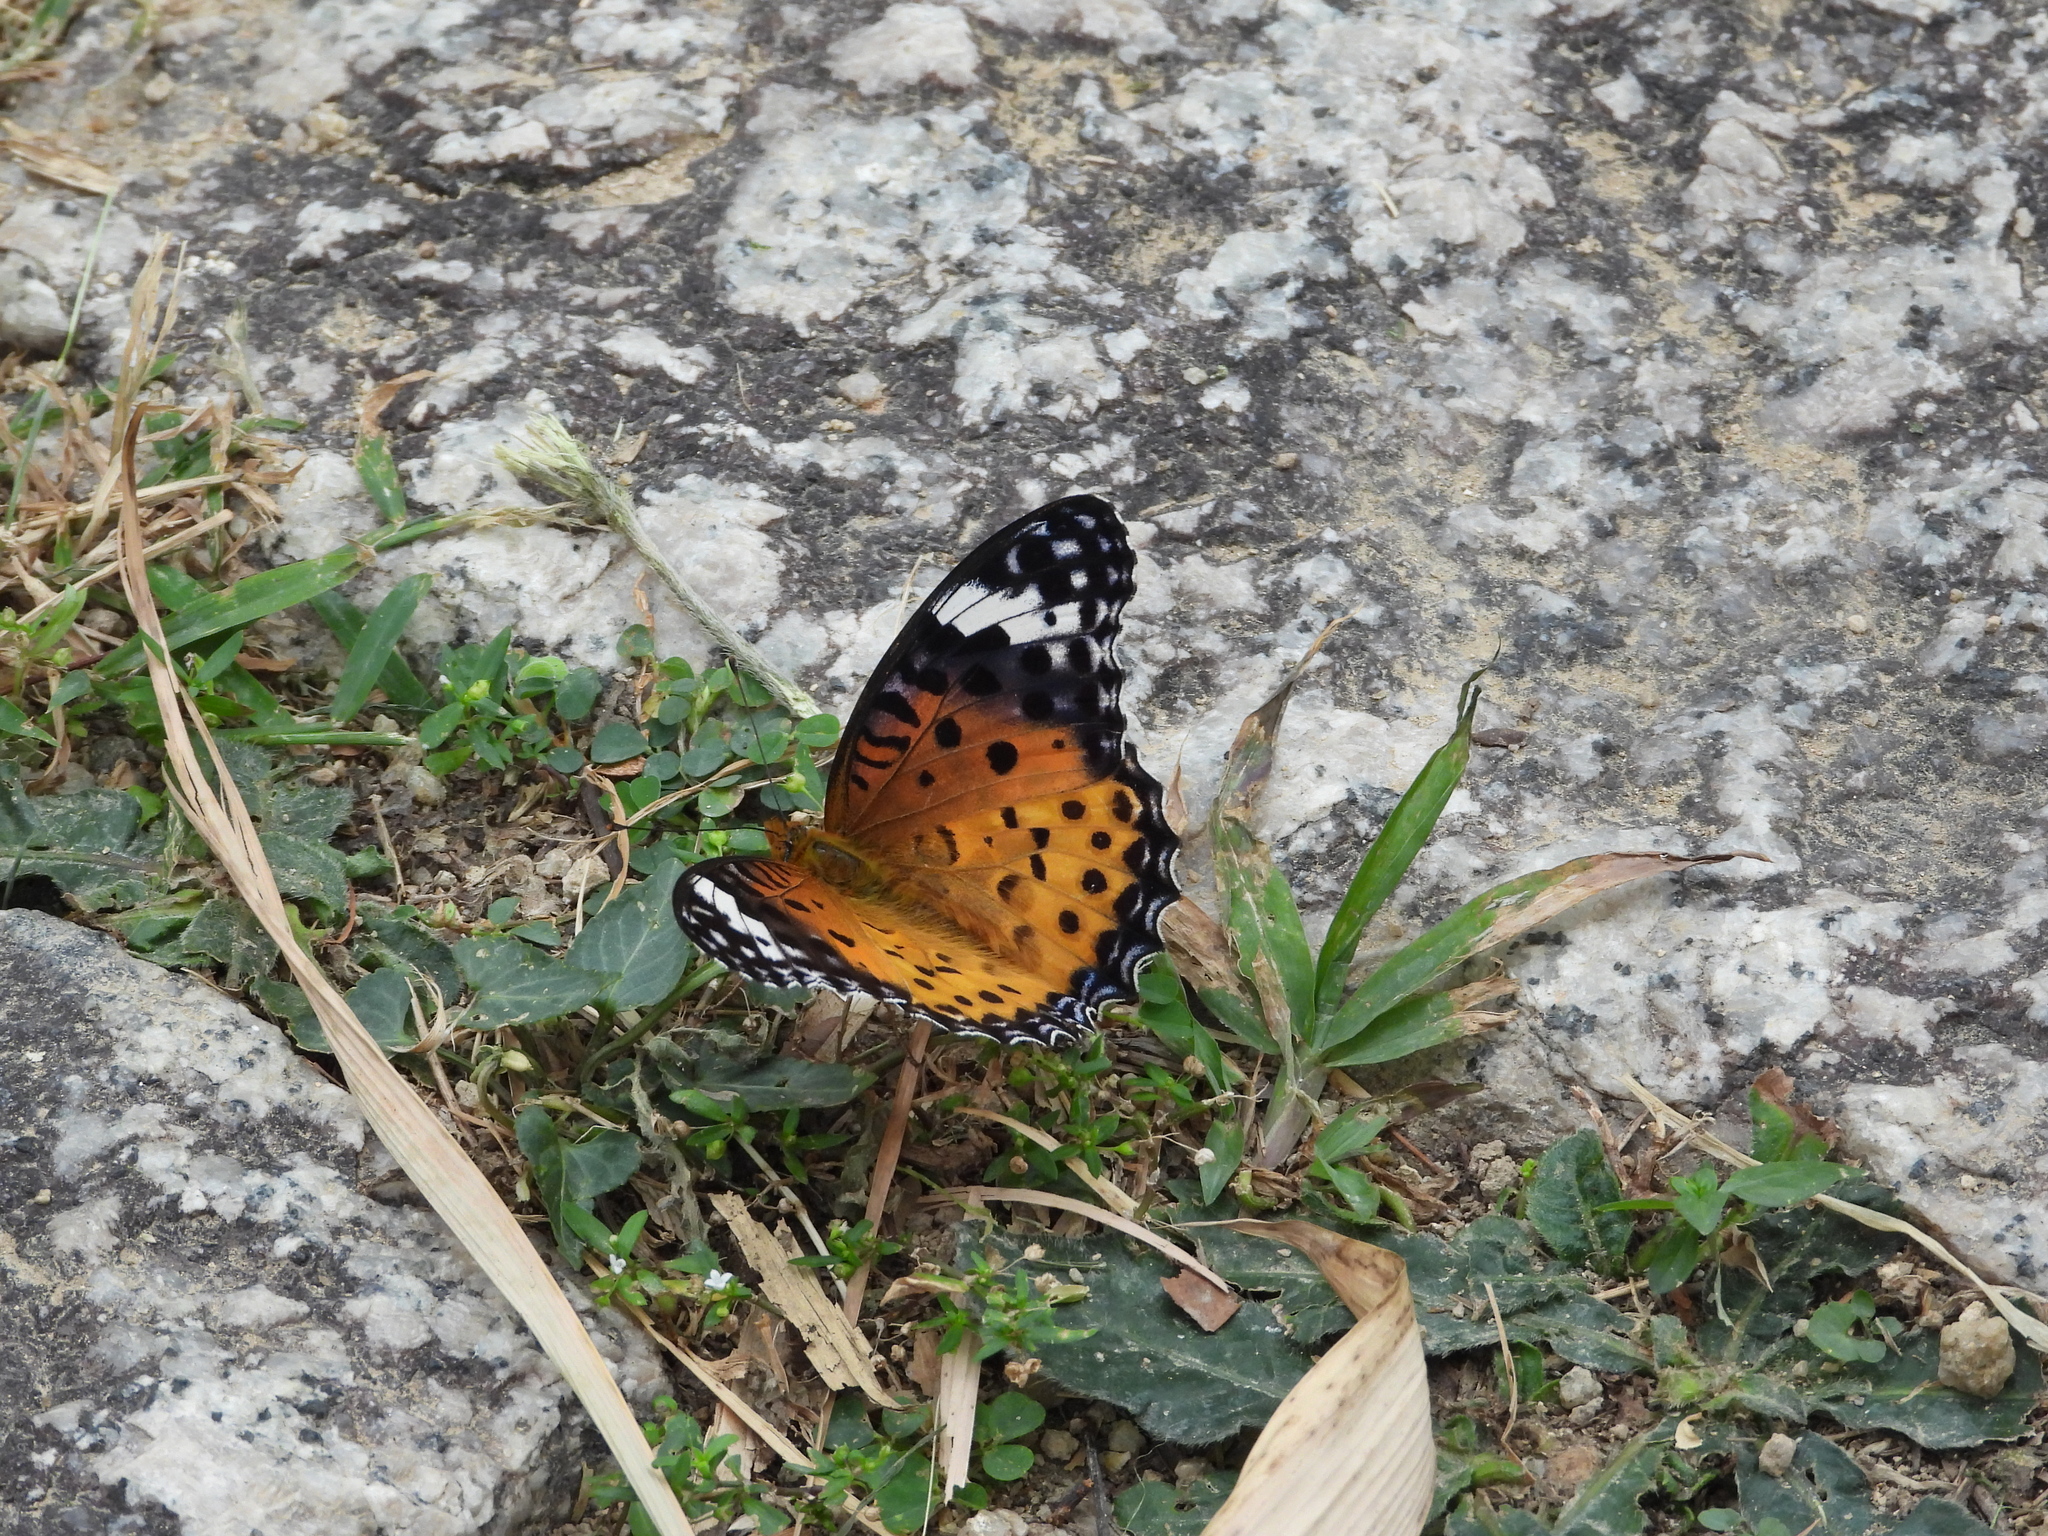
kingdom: Animalia
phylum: Arthropoda
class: Insecta
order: Lepidoptera
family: Nymphalidae
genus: Argynnis
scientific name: Argynnis hyperbius
